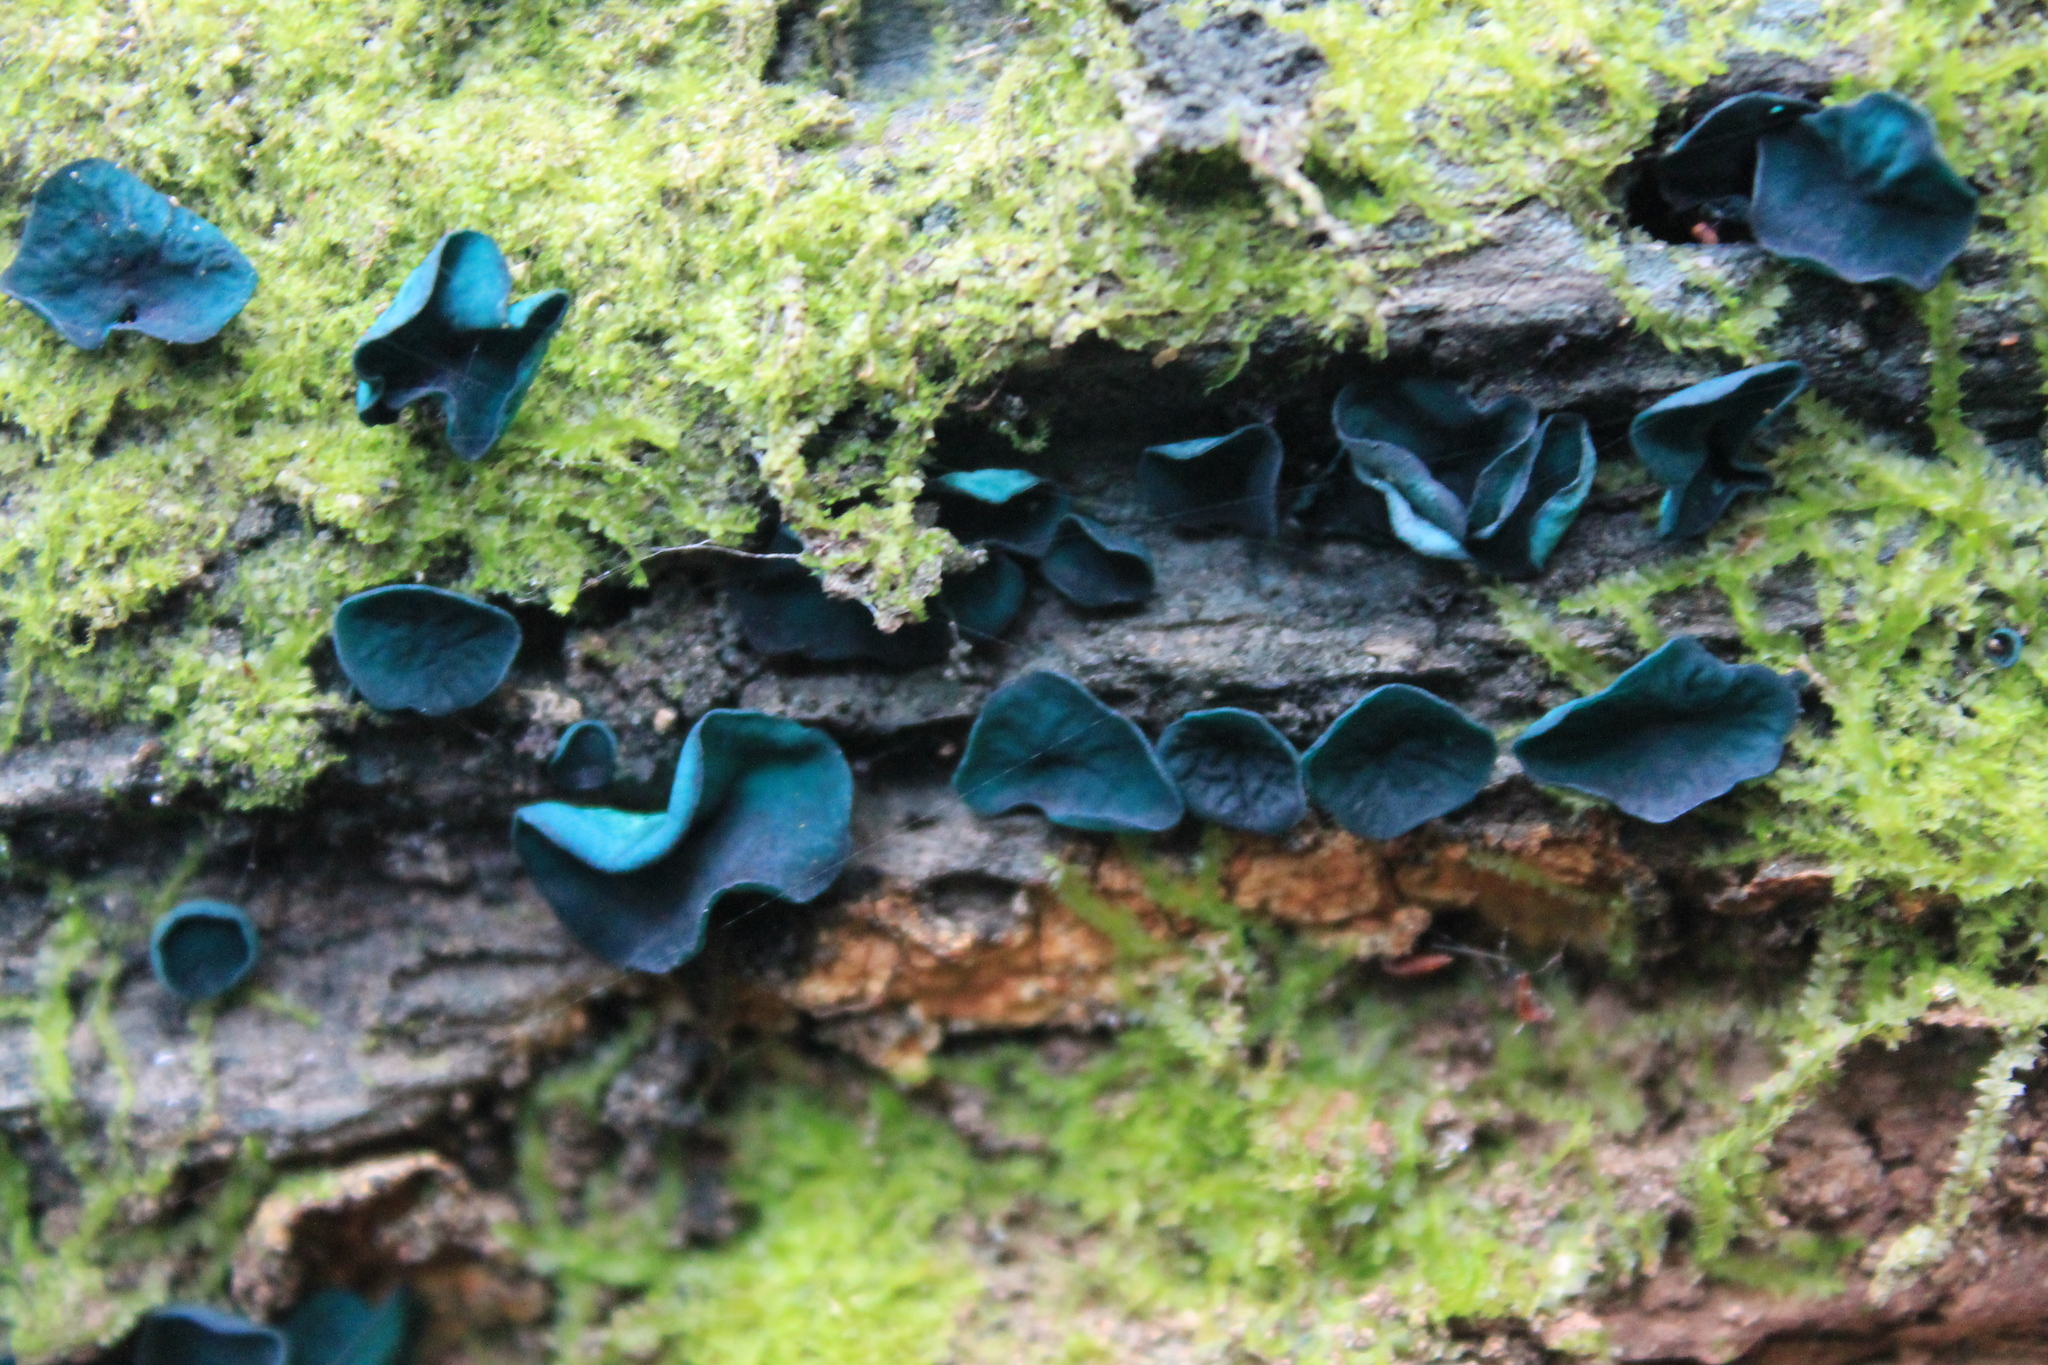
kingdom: Fungi
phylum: Ascomycota
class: Leotiomycetes
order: Helotiales
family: Chlorociboriaceae
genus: Chlorociboria
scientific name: Chlorociboria
